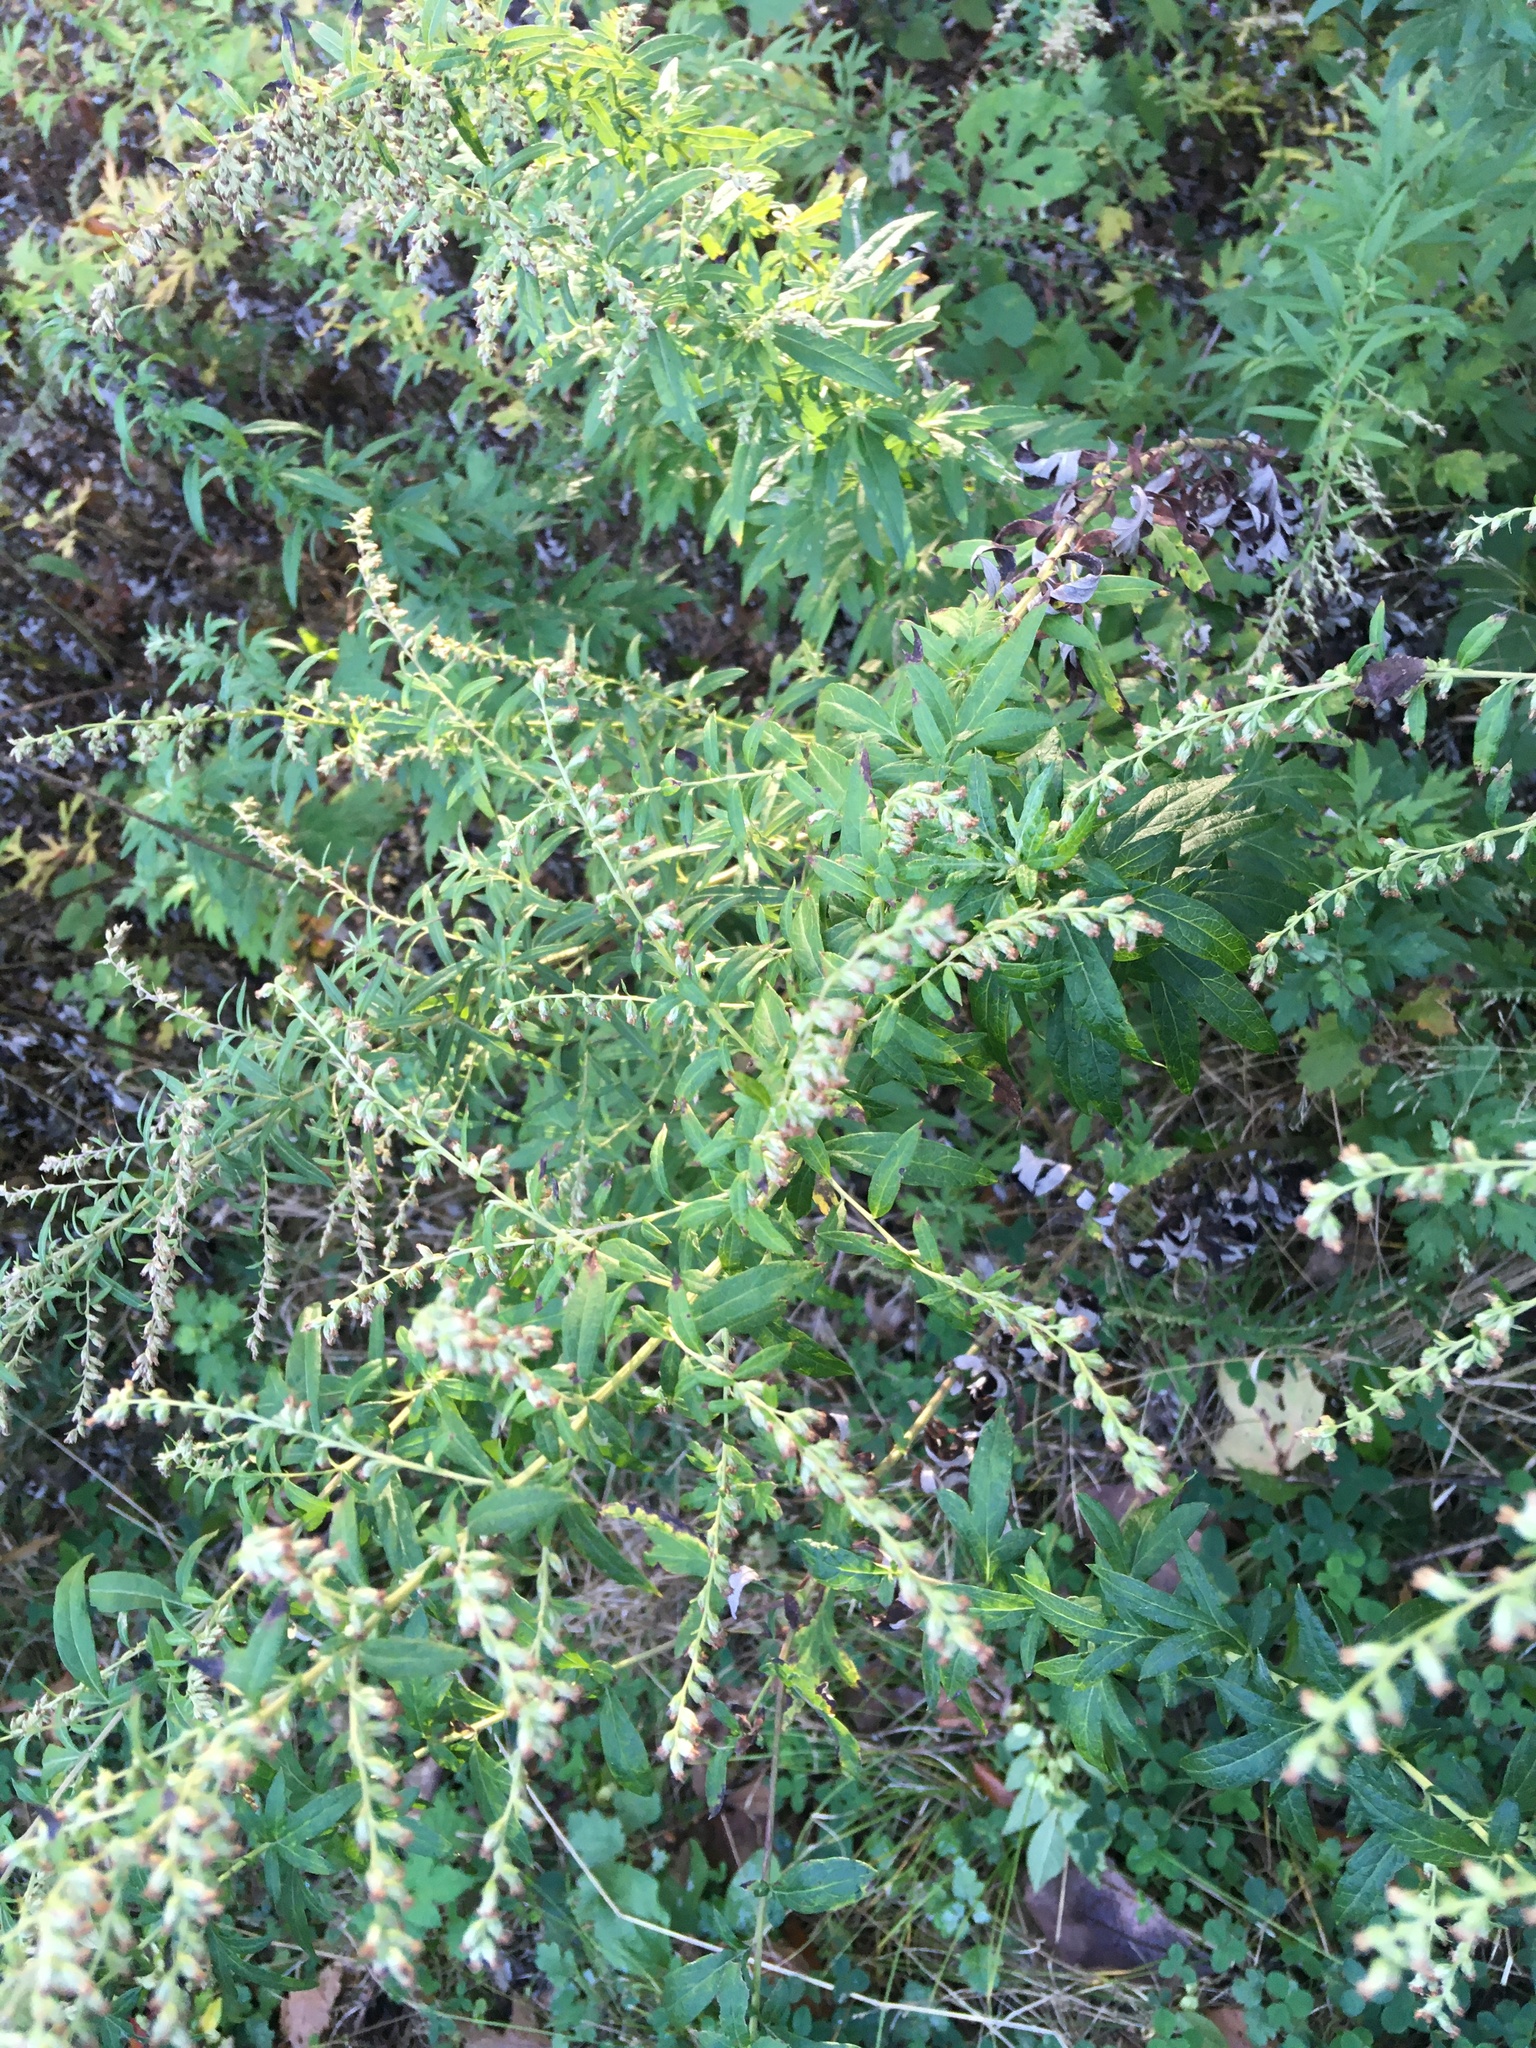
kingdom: Plantae
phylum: Tracheophyta
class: Magnoliopsida
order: Asterales
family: Asteraceae
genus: Artemisia
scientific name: Artemisia vulgaris
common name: Mugwort
